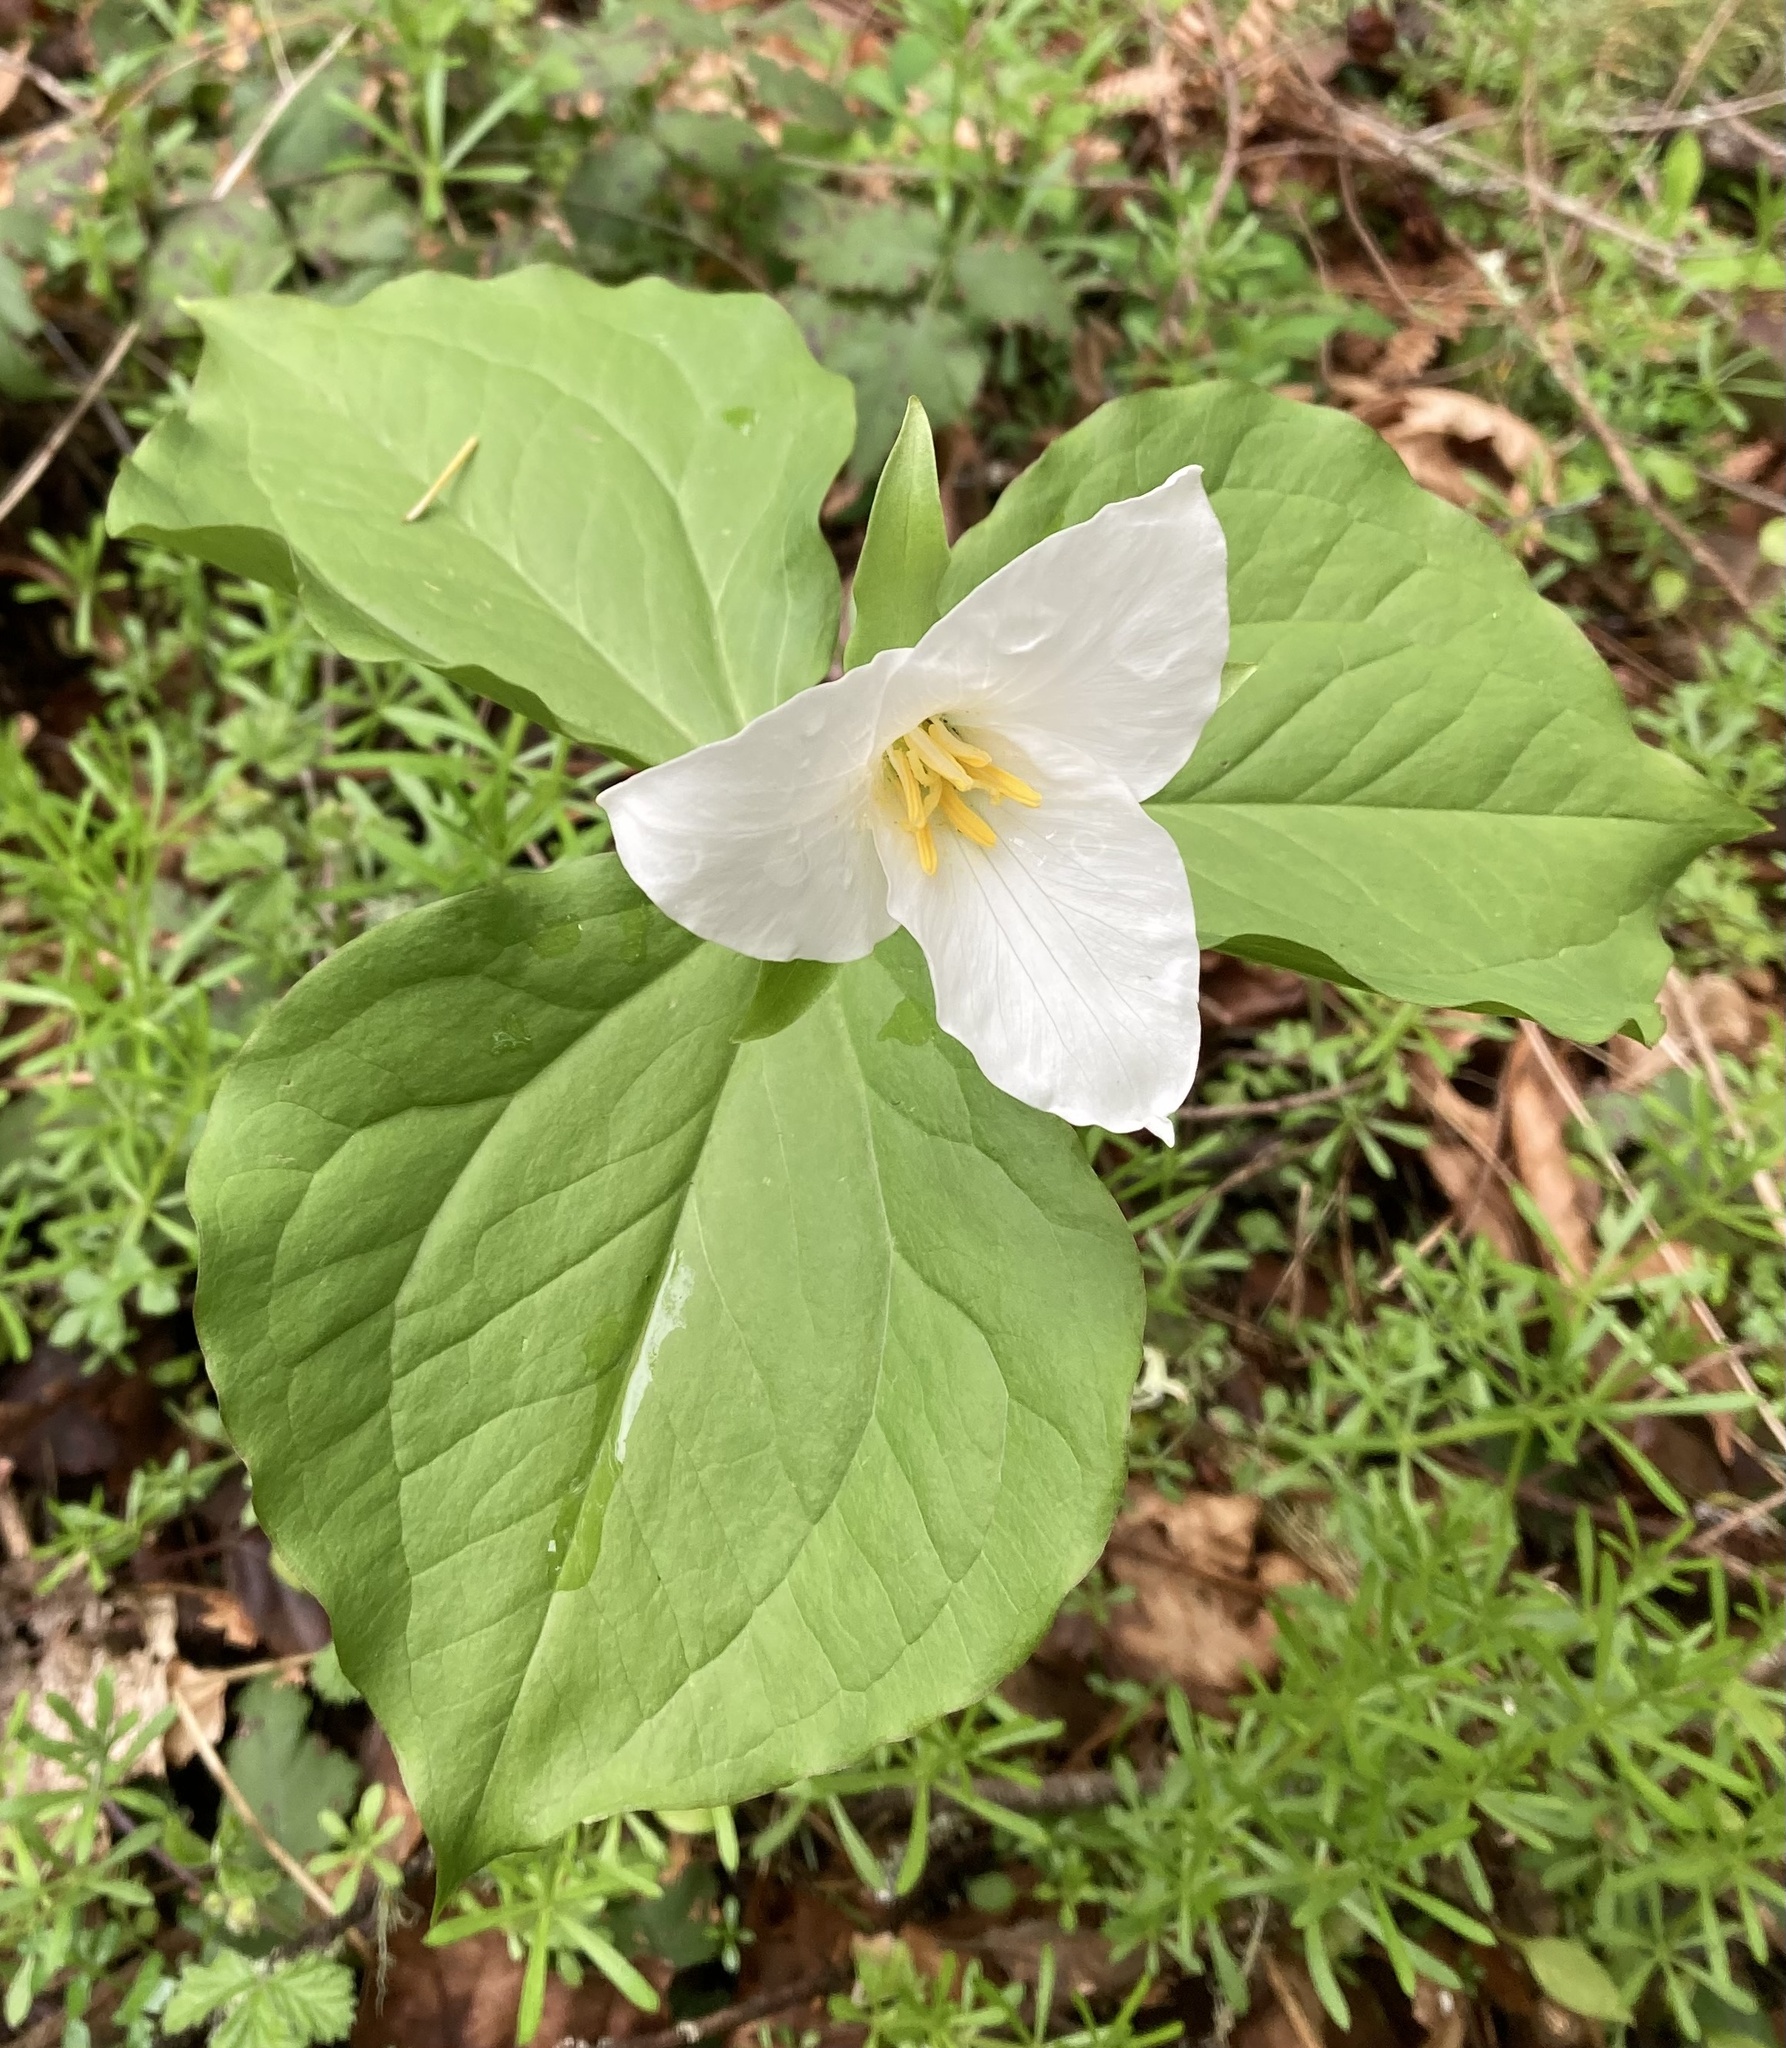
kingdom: Plantae
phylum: Tracheophyta
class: Liliopsida
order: Liliales
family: Melanthiaceae
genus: Trillium
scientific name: Trillium ovatum
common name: Pacific trillium
